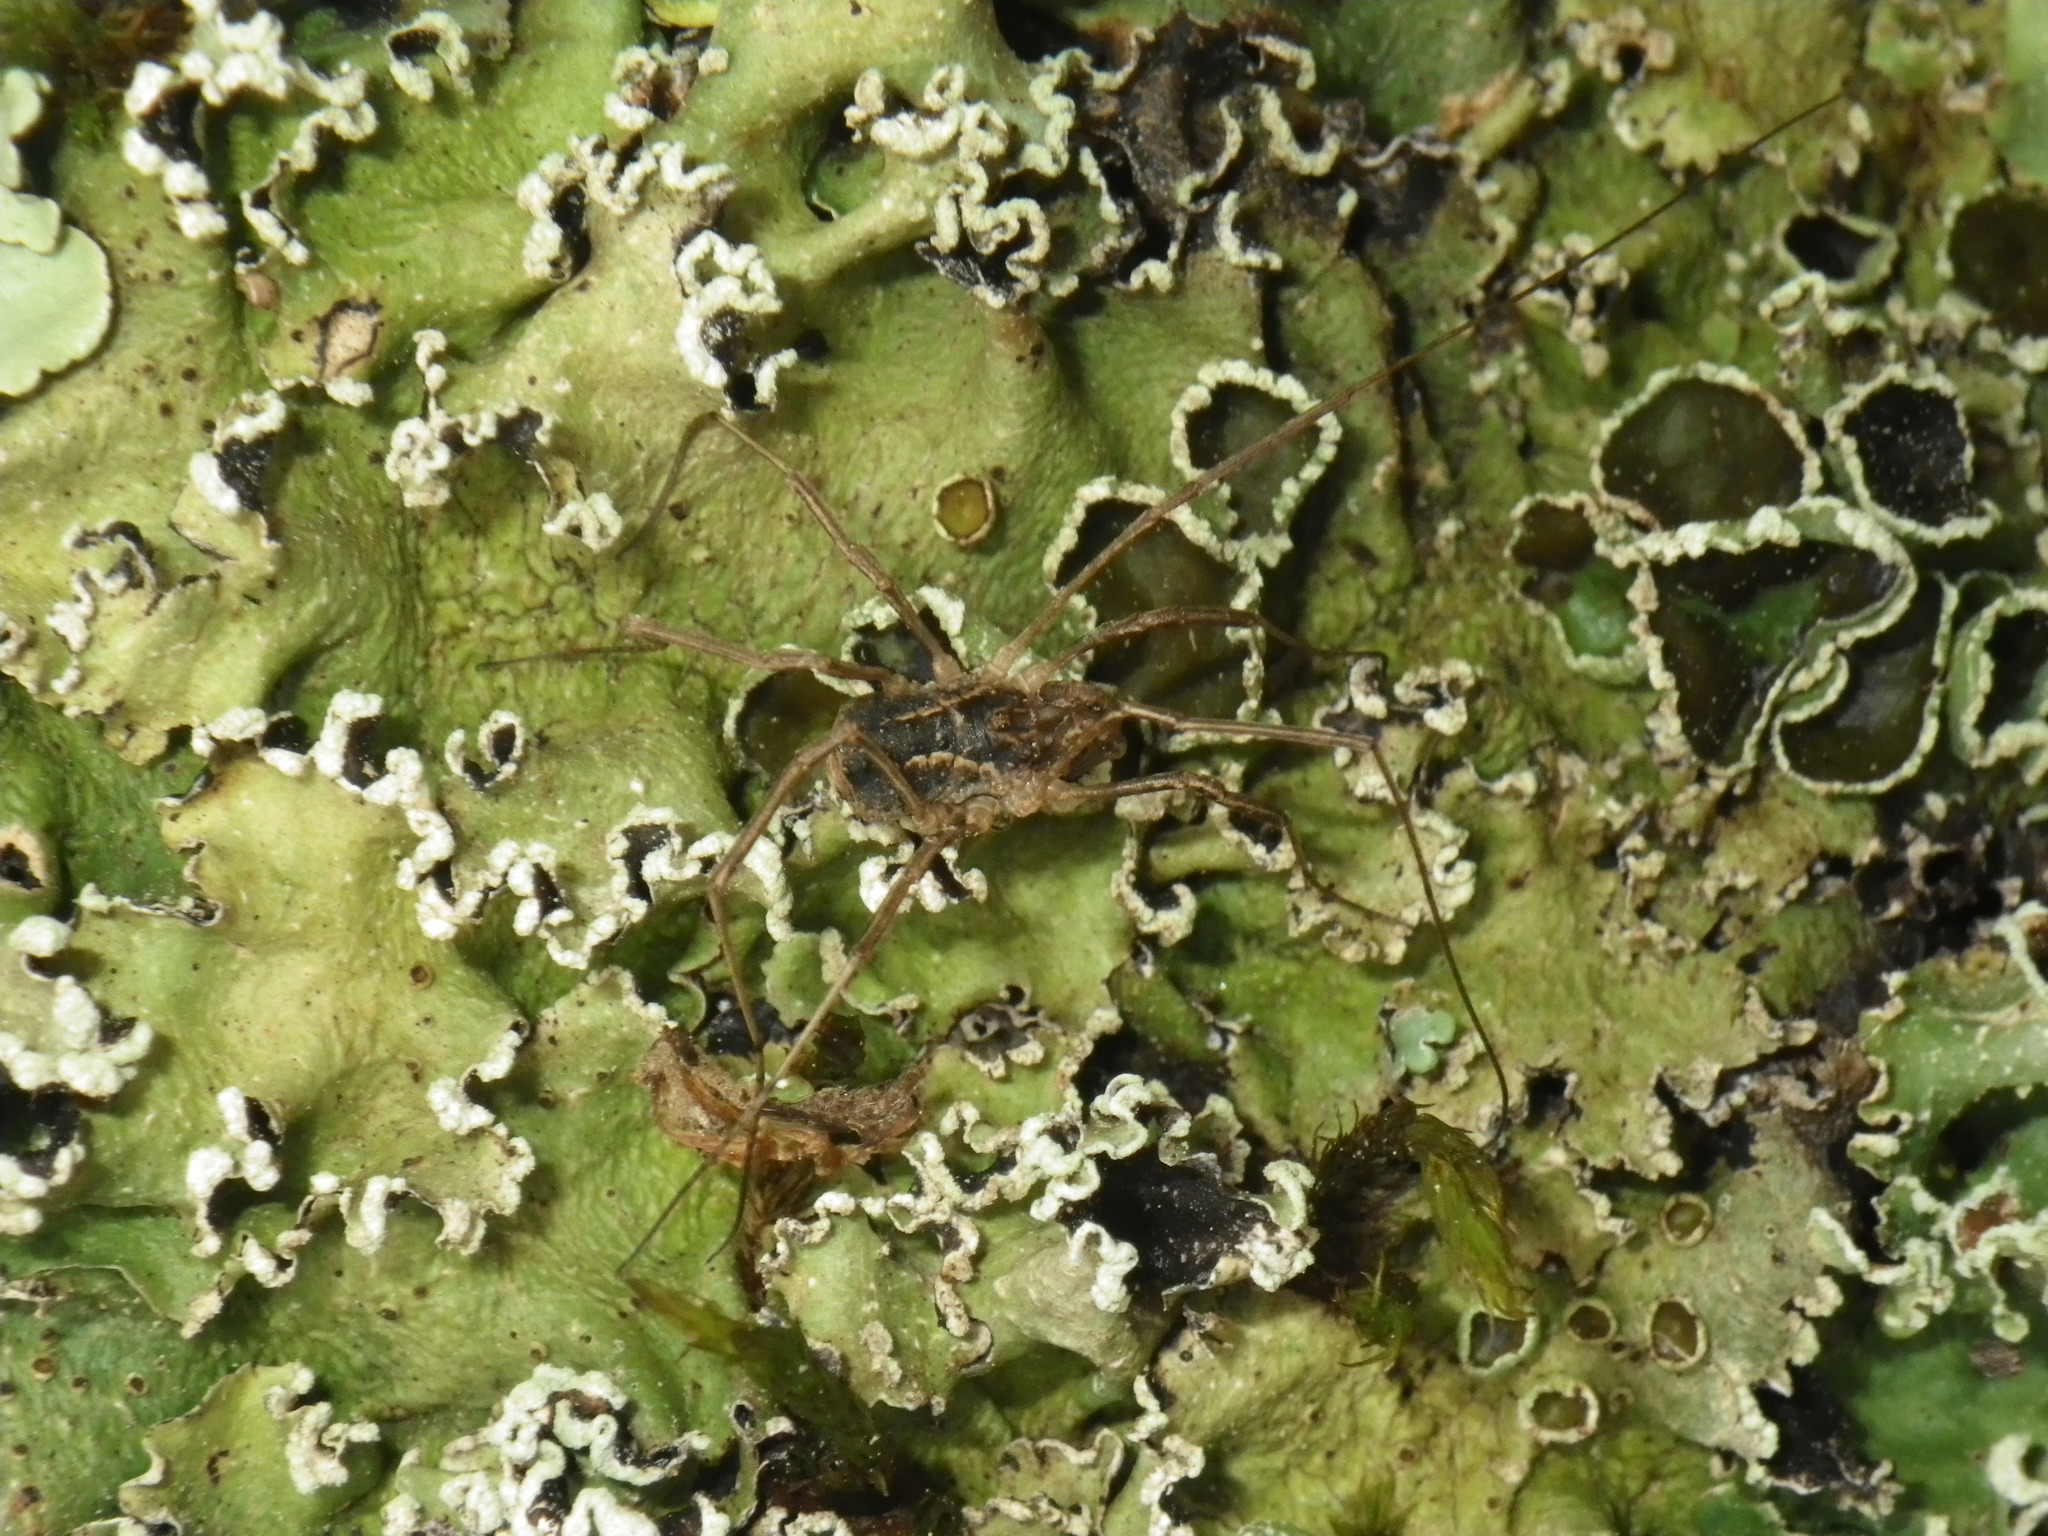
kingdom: Animalia
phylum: Arthropoda
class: Arachnida
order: Opiliones
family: Protolophidae
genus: Protolophus
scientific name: Protolophus singularis
